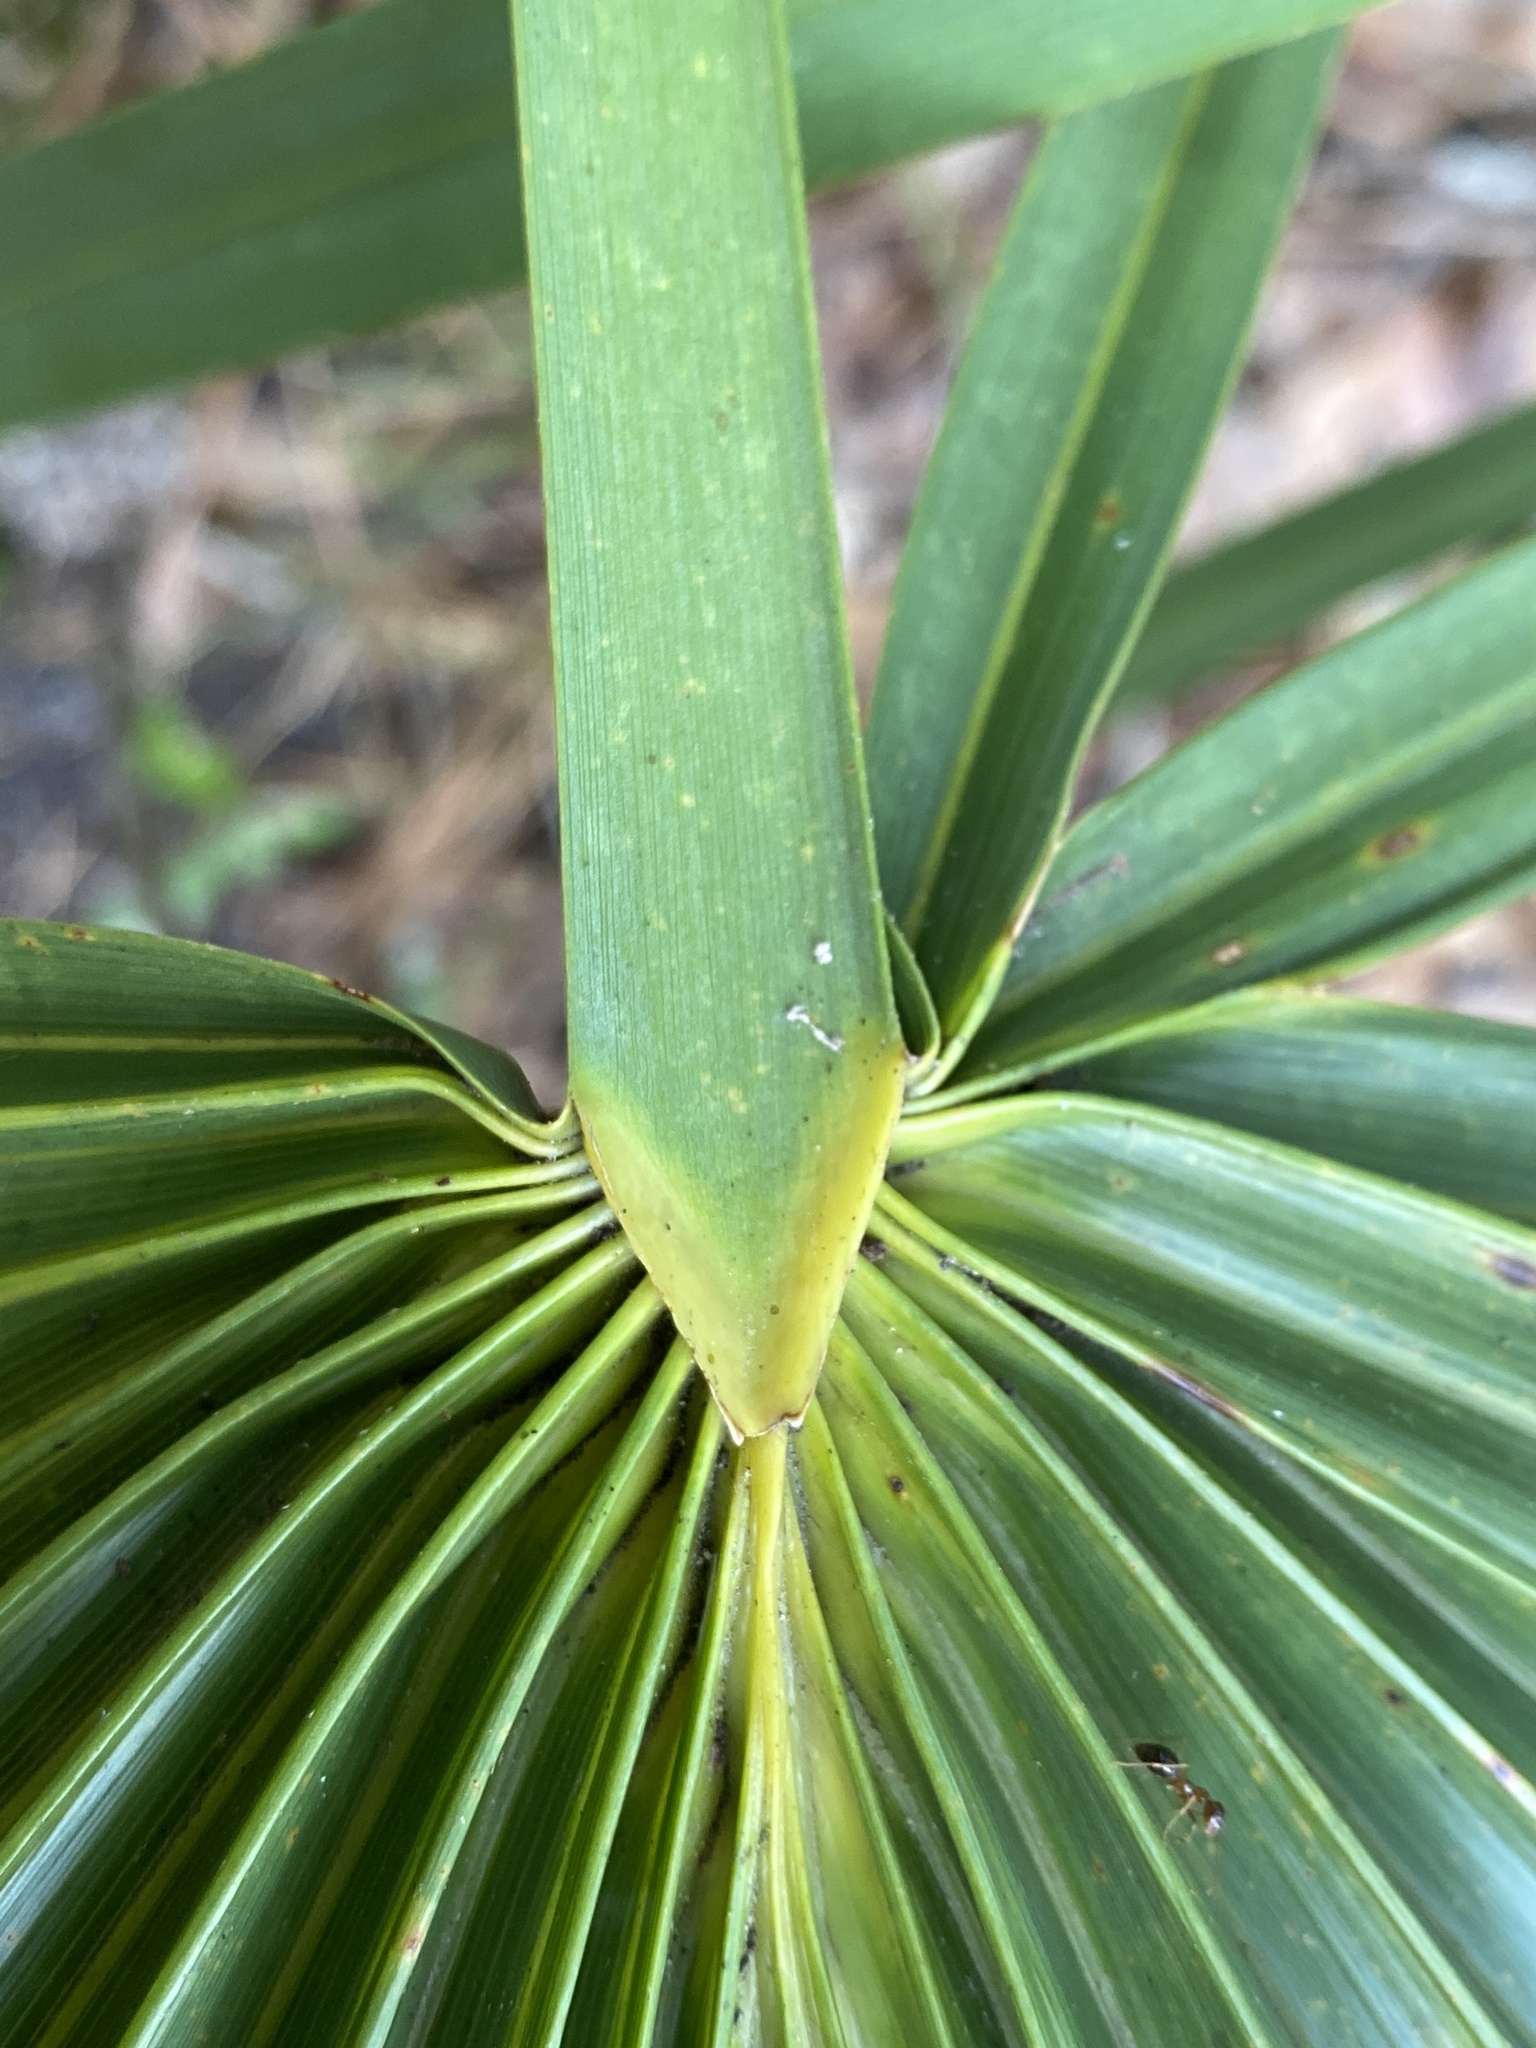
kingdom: Plantae
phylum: Tracheophyta
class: Liliopsida
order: Arecales
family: Arecaceae
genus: Sabal
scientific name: Sabal minor
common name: Dwarf palmetto
